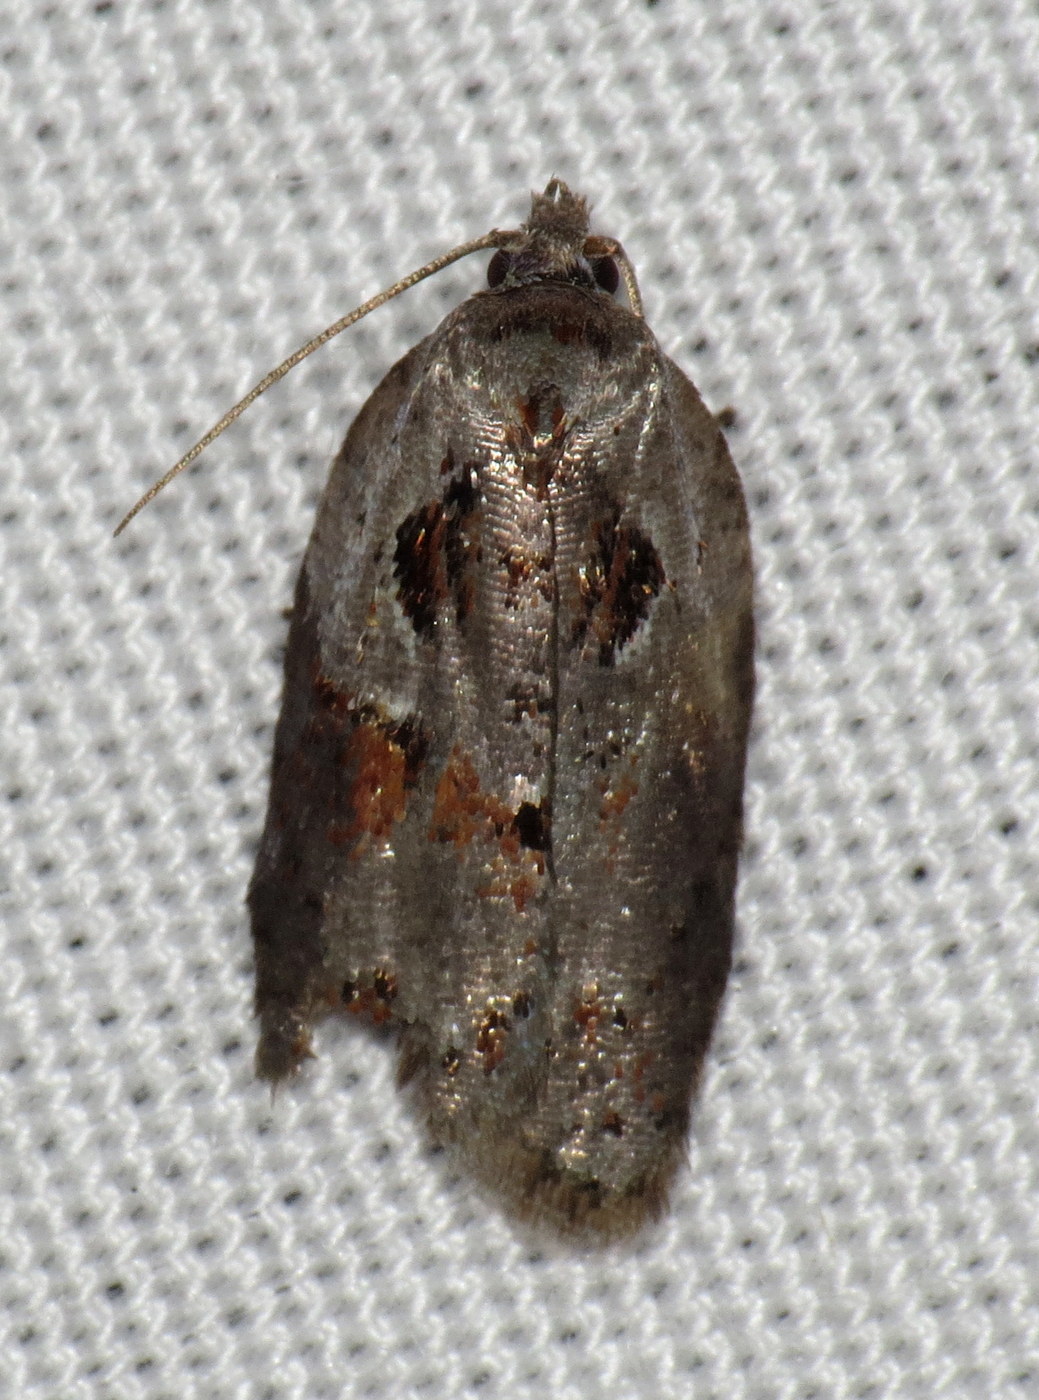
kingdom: Animalia
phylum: Arthropoda
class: Insecta
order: Lepidoptera
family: Tortricidae
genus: Acleris
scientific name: Acleris maculidorsana
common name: Stained-back leafroller moth
